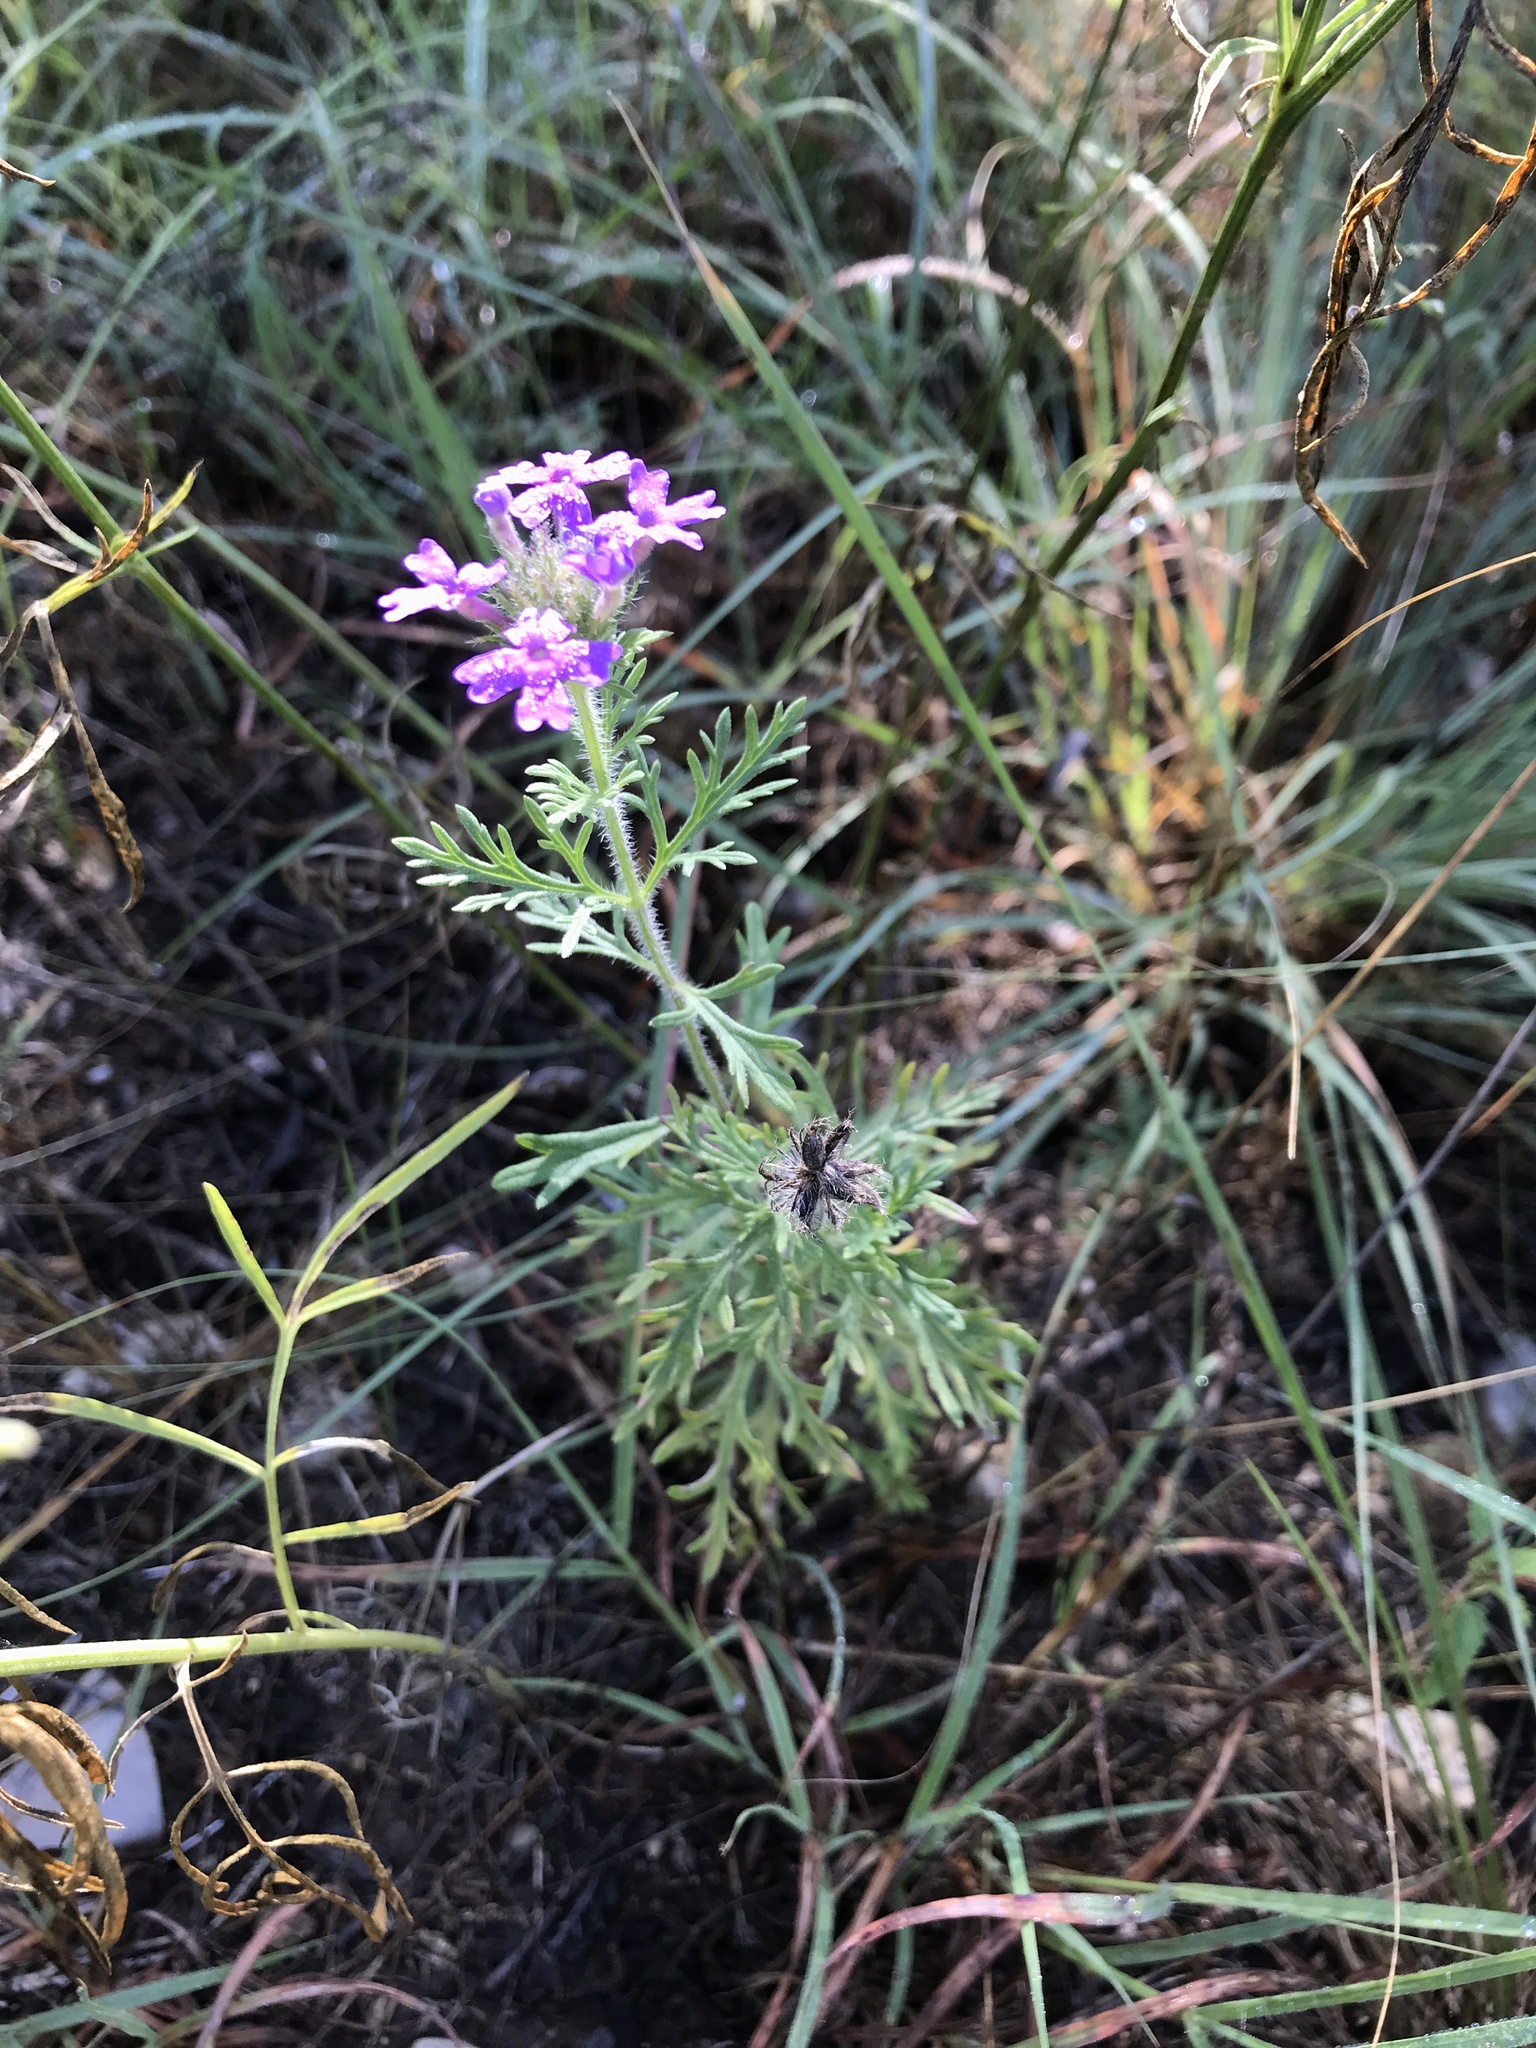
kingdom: Plantae
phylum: Tracheophyta
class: Magnoliopsida
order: Lamiales
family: Verbenaceae
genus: Verbena
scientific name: Verbena bipinnatifida
